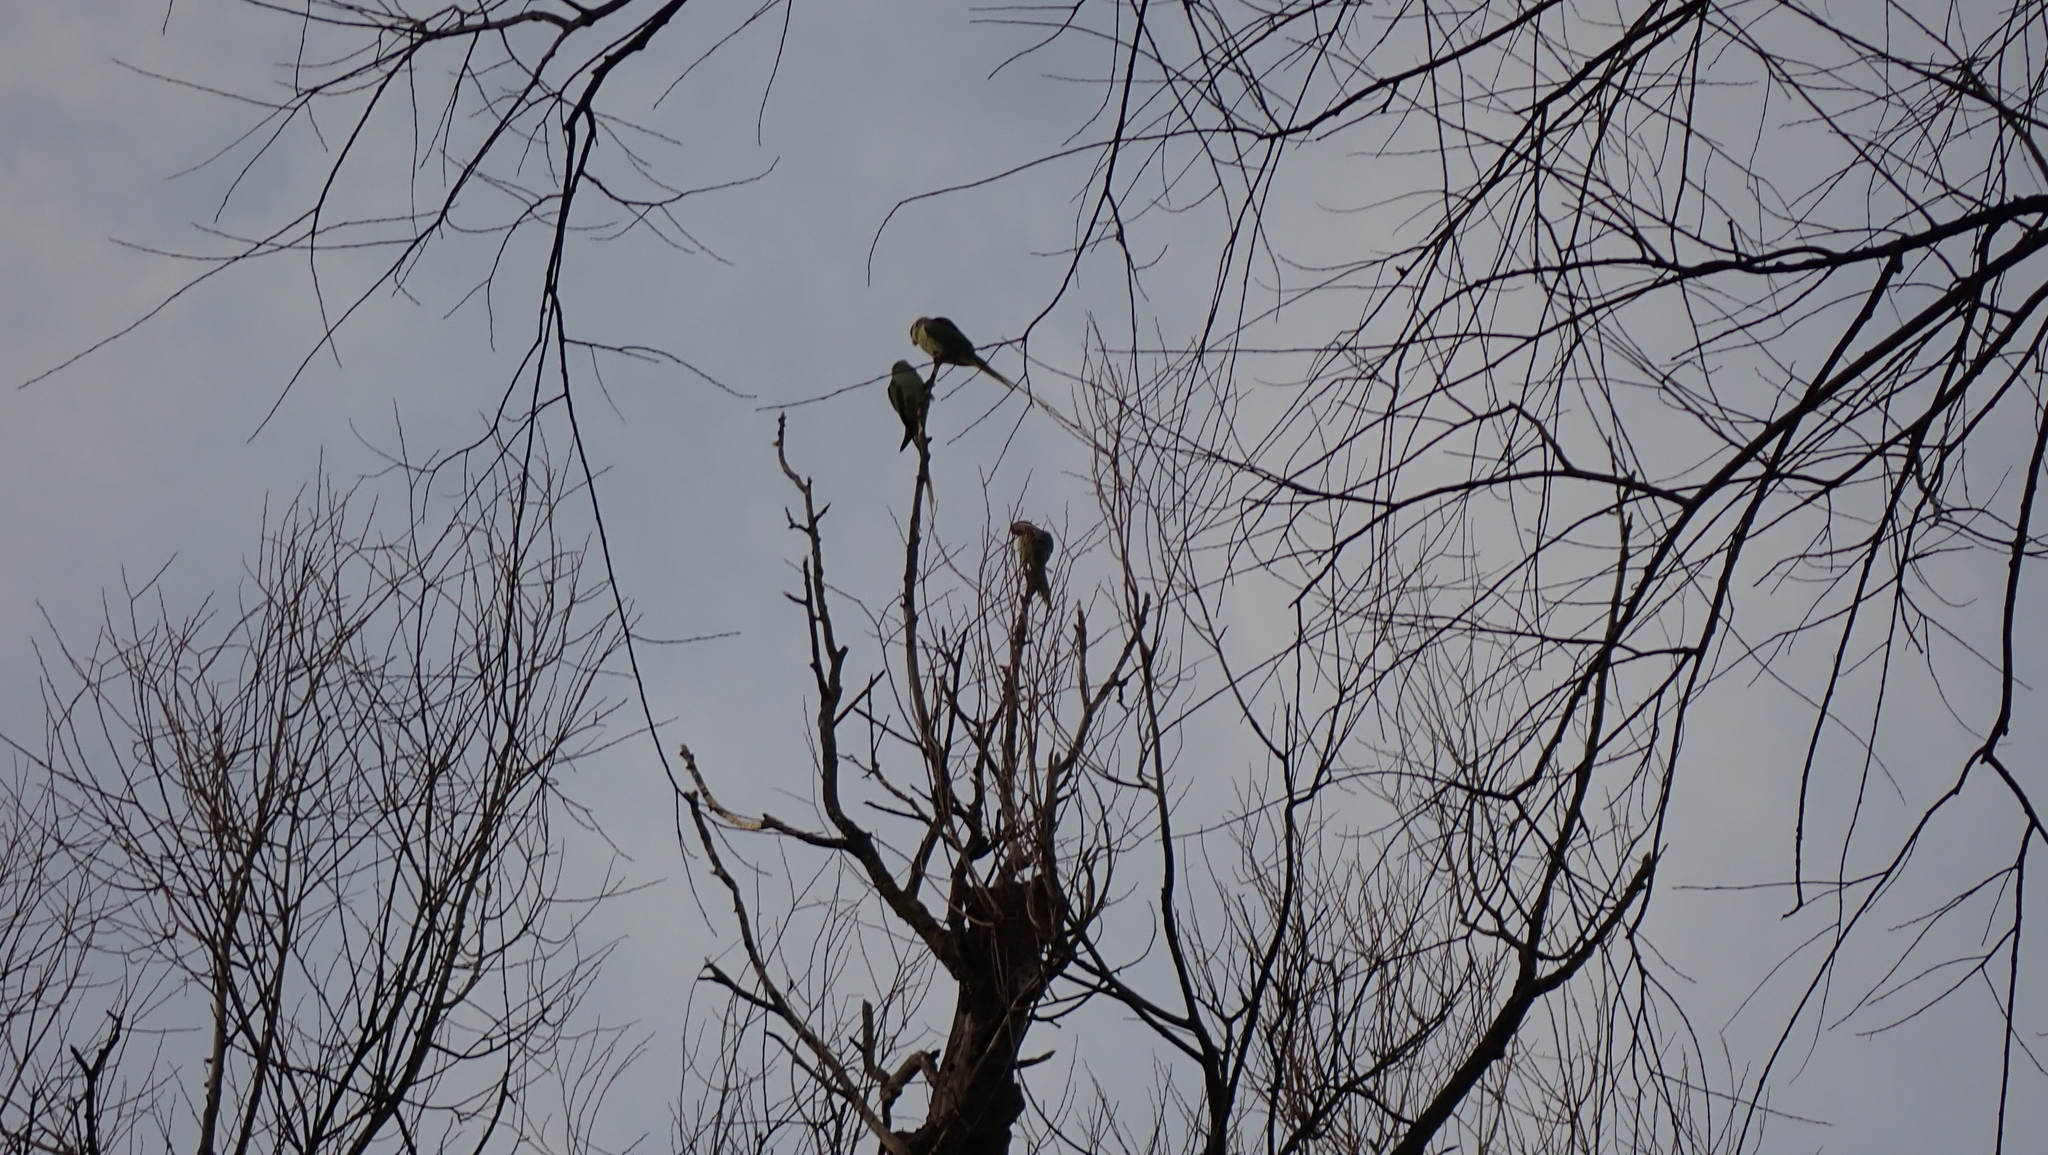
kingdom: Animalia
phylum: Chordata
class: Aves
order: Psittaciformes
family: Psittacidae
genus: Psittacula
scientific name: Psittacula krameri
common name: Rose-ringed parakeet
